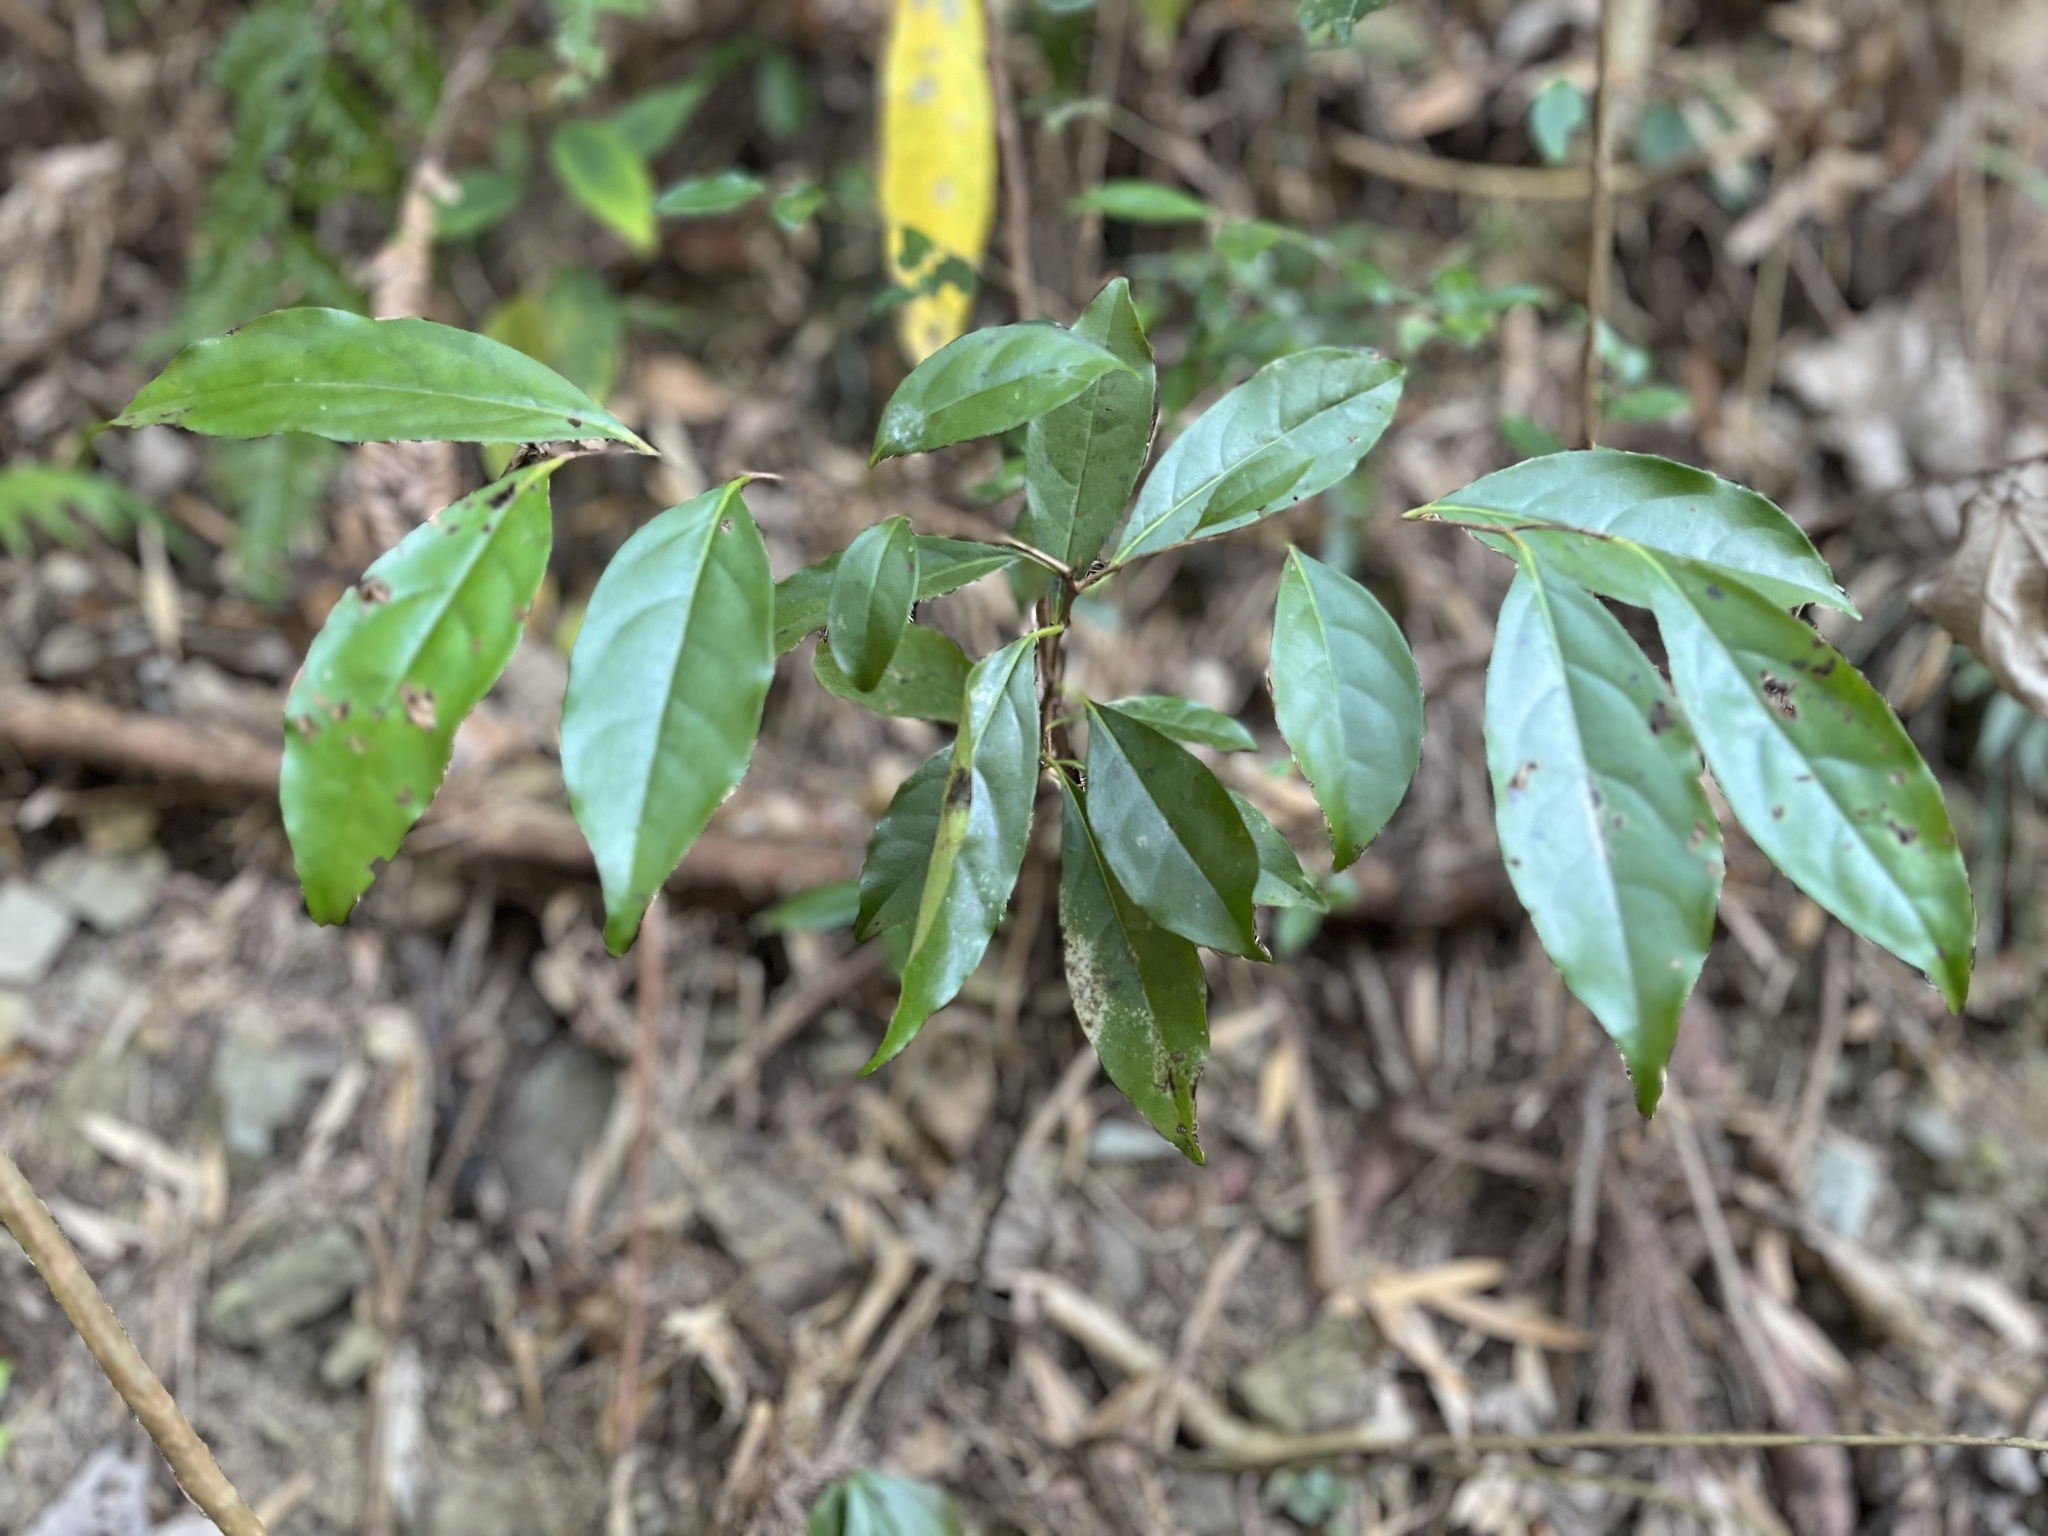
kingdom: Plantae
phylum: Tracheophyta
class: Magnoliopsida
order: Ericales
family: Ebenaceae
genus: Diospyros
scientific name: Diospyros morrisiana
